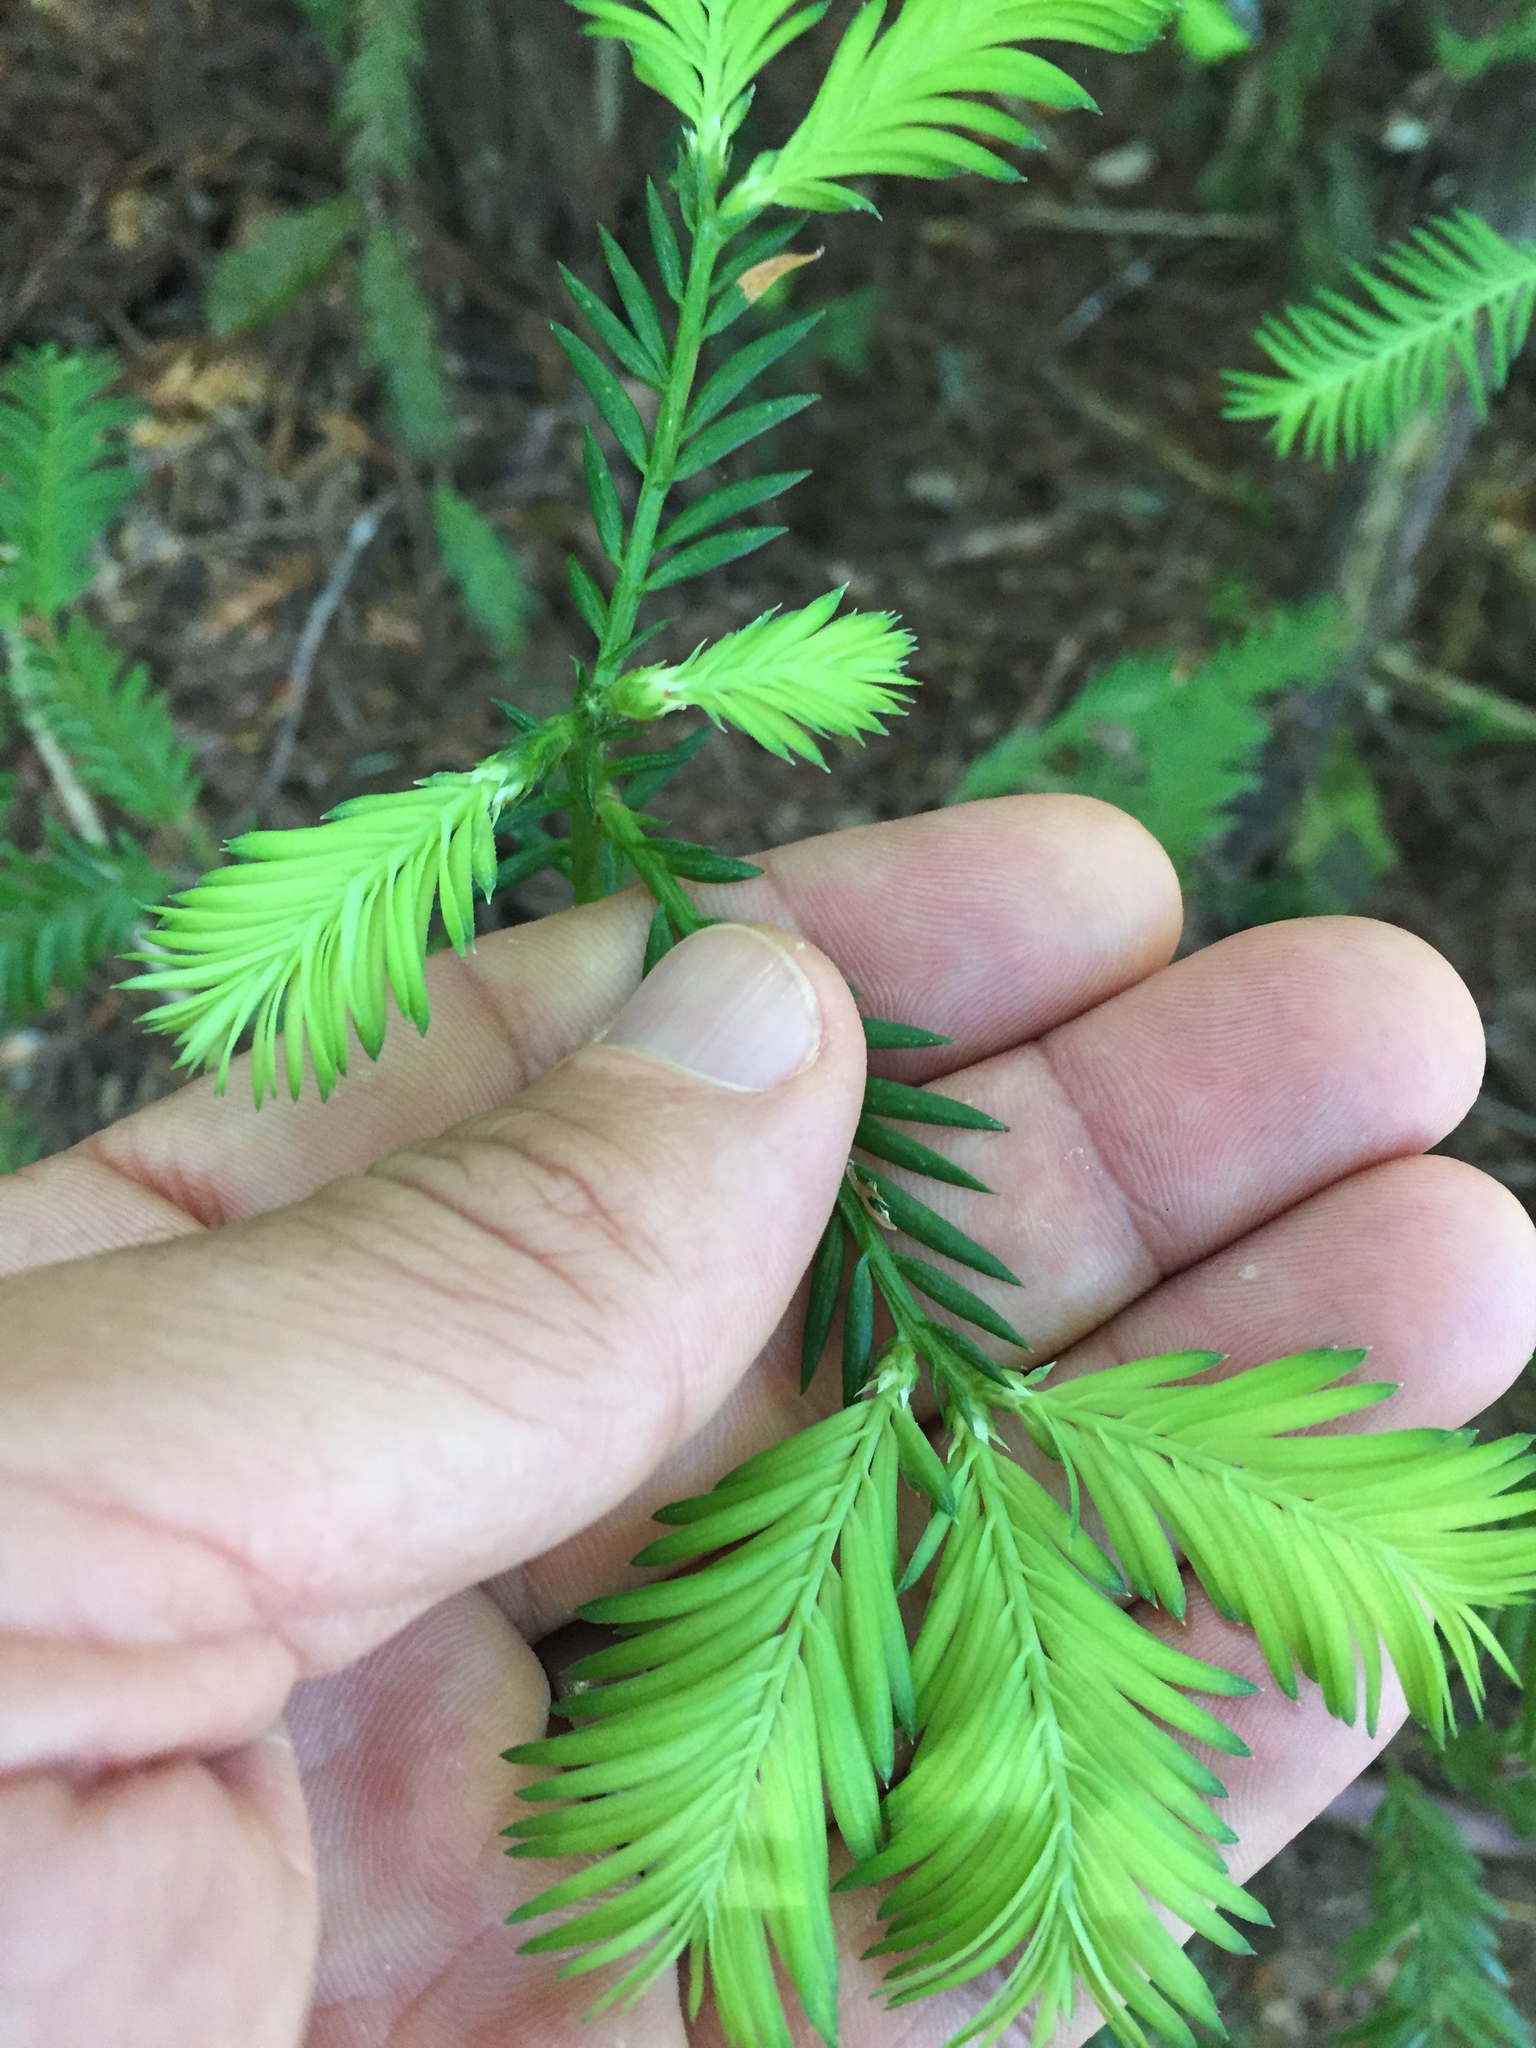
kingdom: Plantae
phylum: Tracheophyta
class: Pinopsida
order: Pinales
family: Cupressaceae
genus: Sequoia
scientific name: Sequoia sempervirens
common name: Coast redwood
